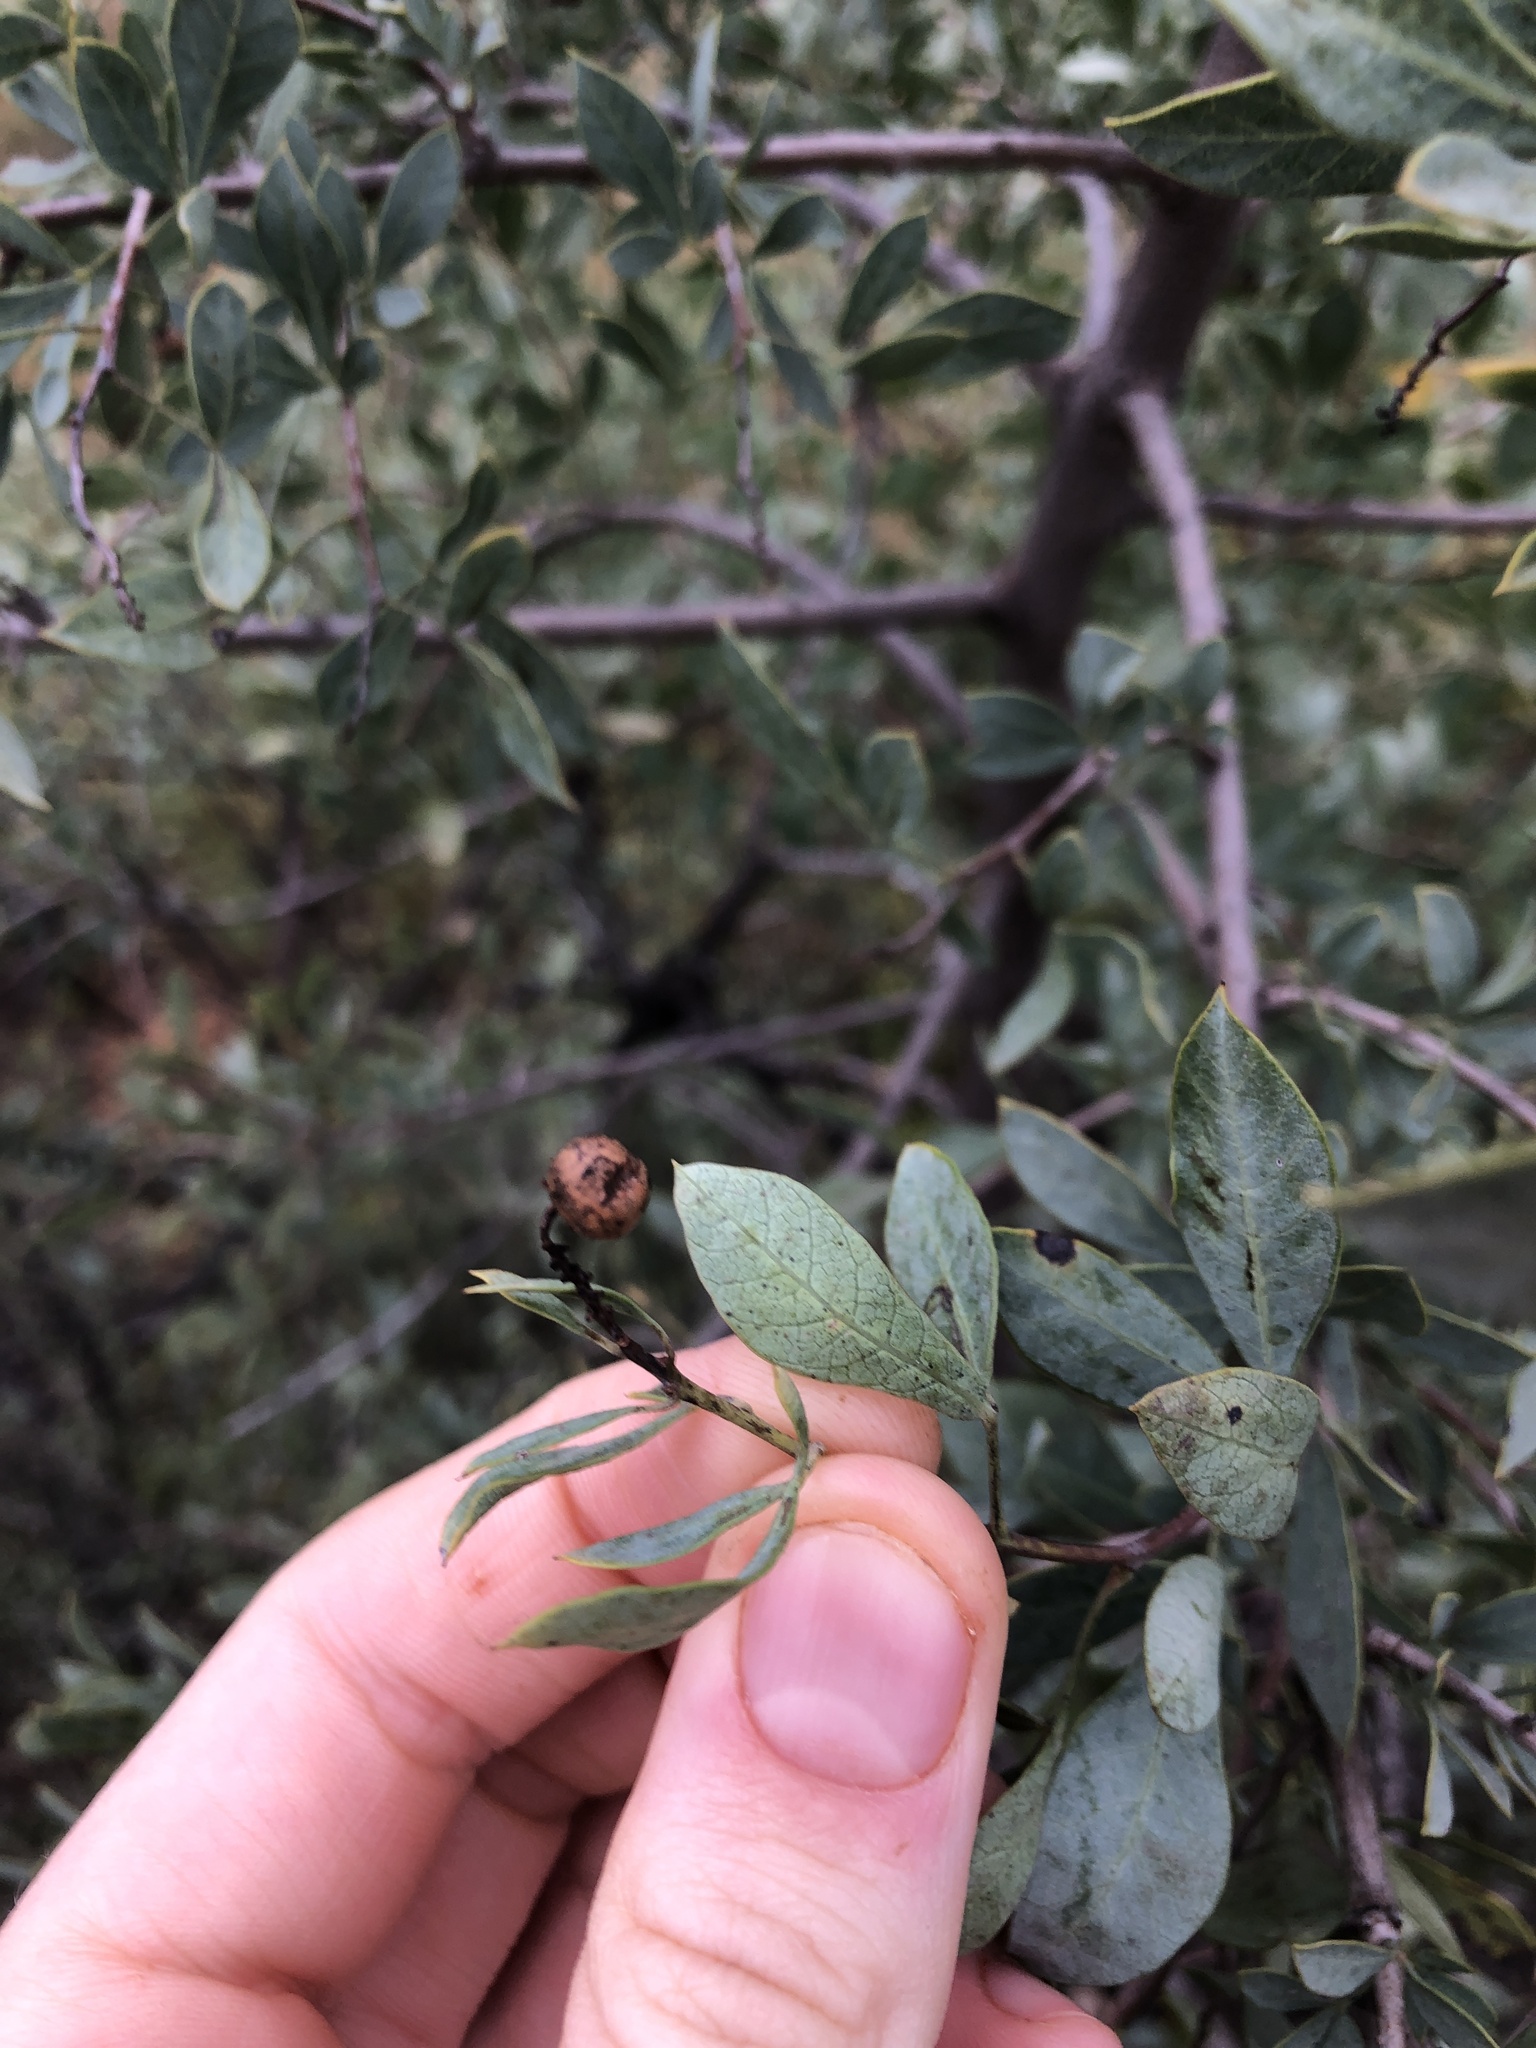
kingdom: Plantae
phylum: Tracheophyta
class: Magnoliopsida
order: Sapindales
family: Anacardiaceae
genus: Searsia
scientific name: Searsia zeyheri
